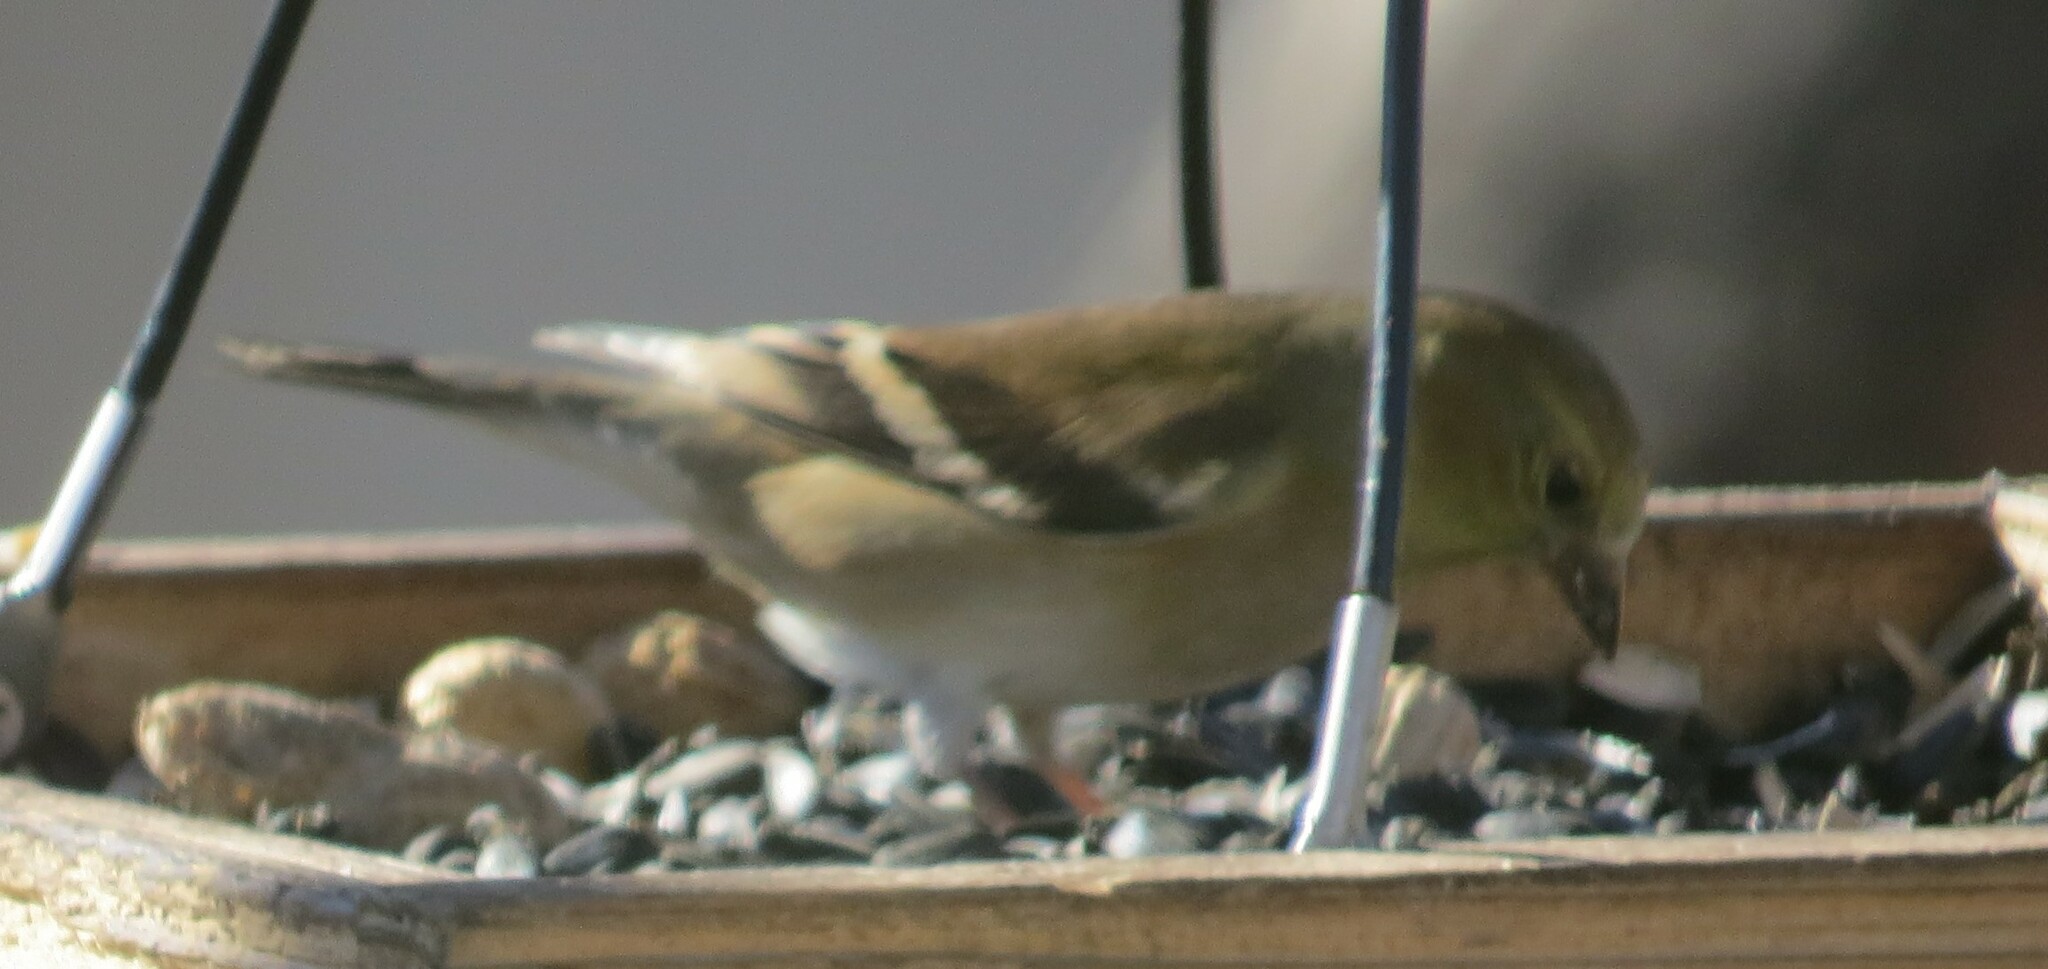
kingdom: Animalia
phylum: Chordata
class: Aves
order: Passeriformes
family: Fringillidae
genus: Spinus
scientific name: Spinus tristis
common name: American goldfinch
